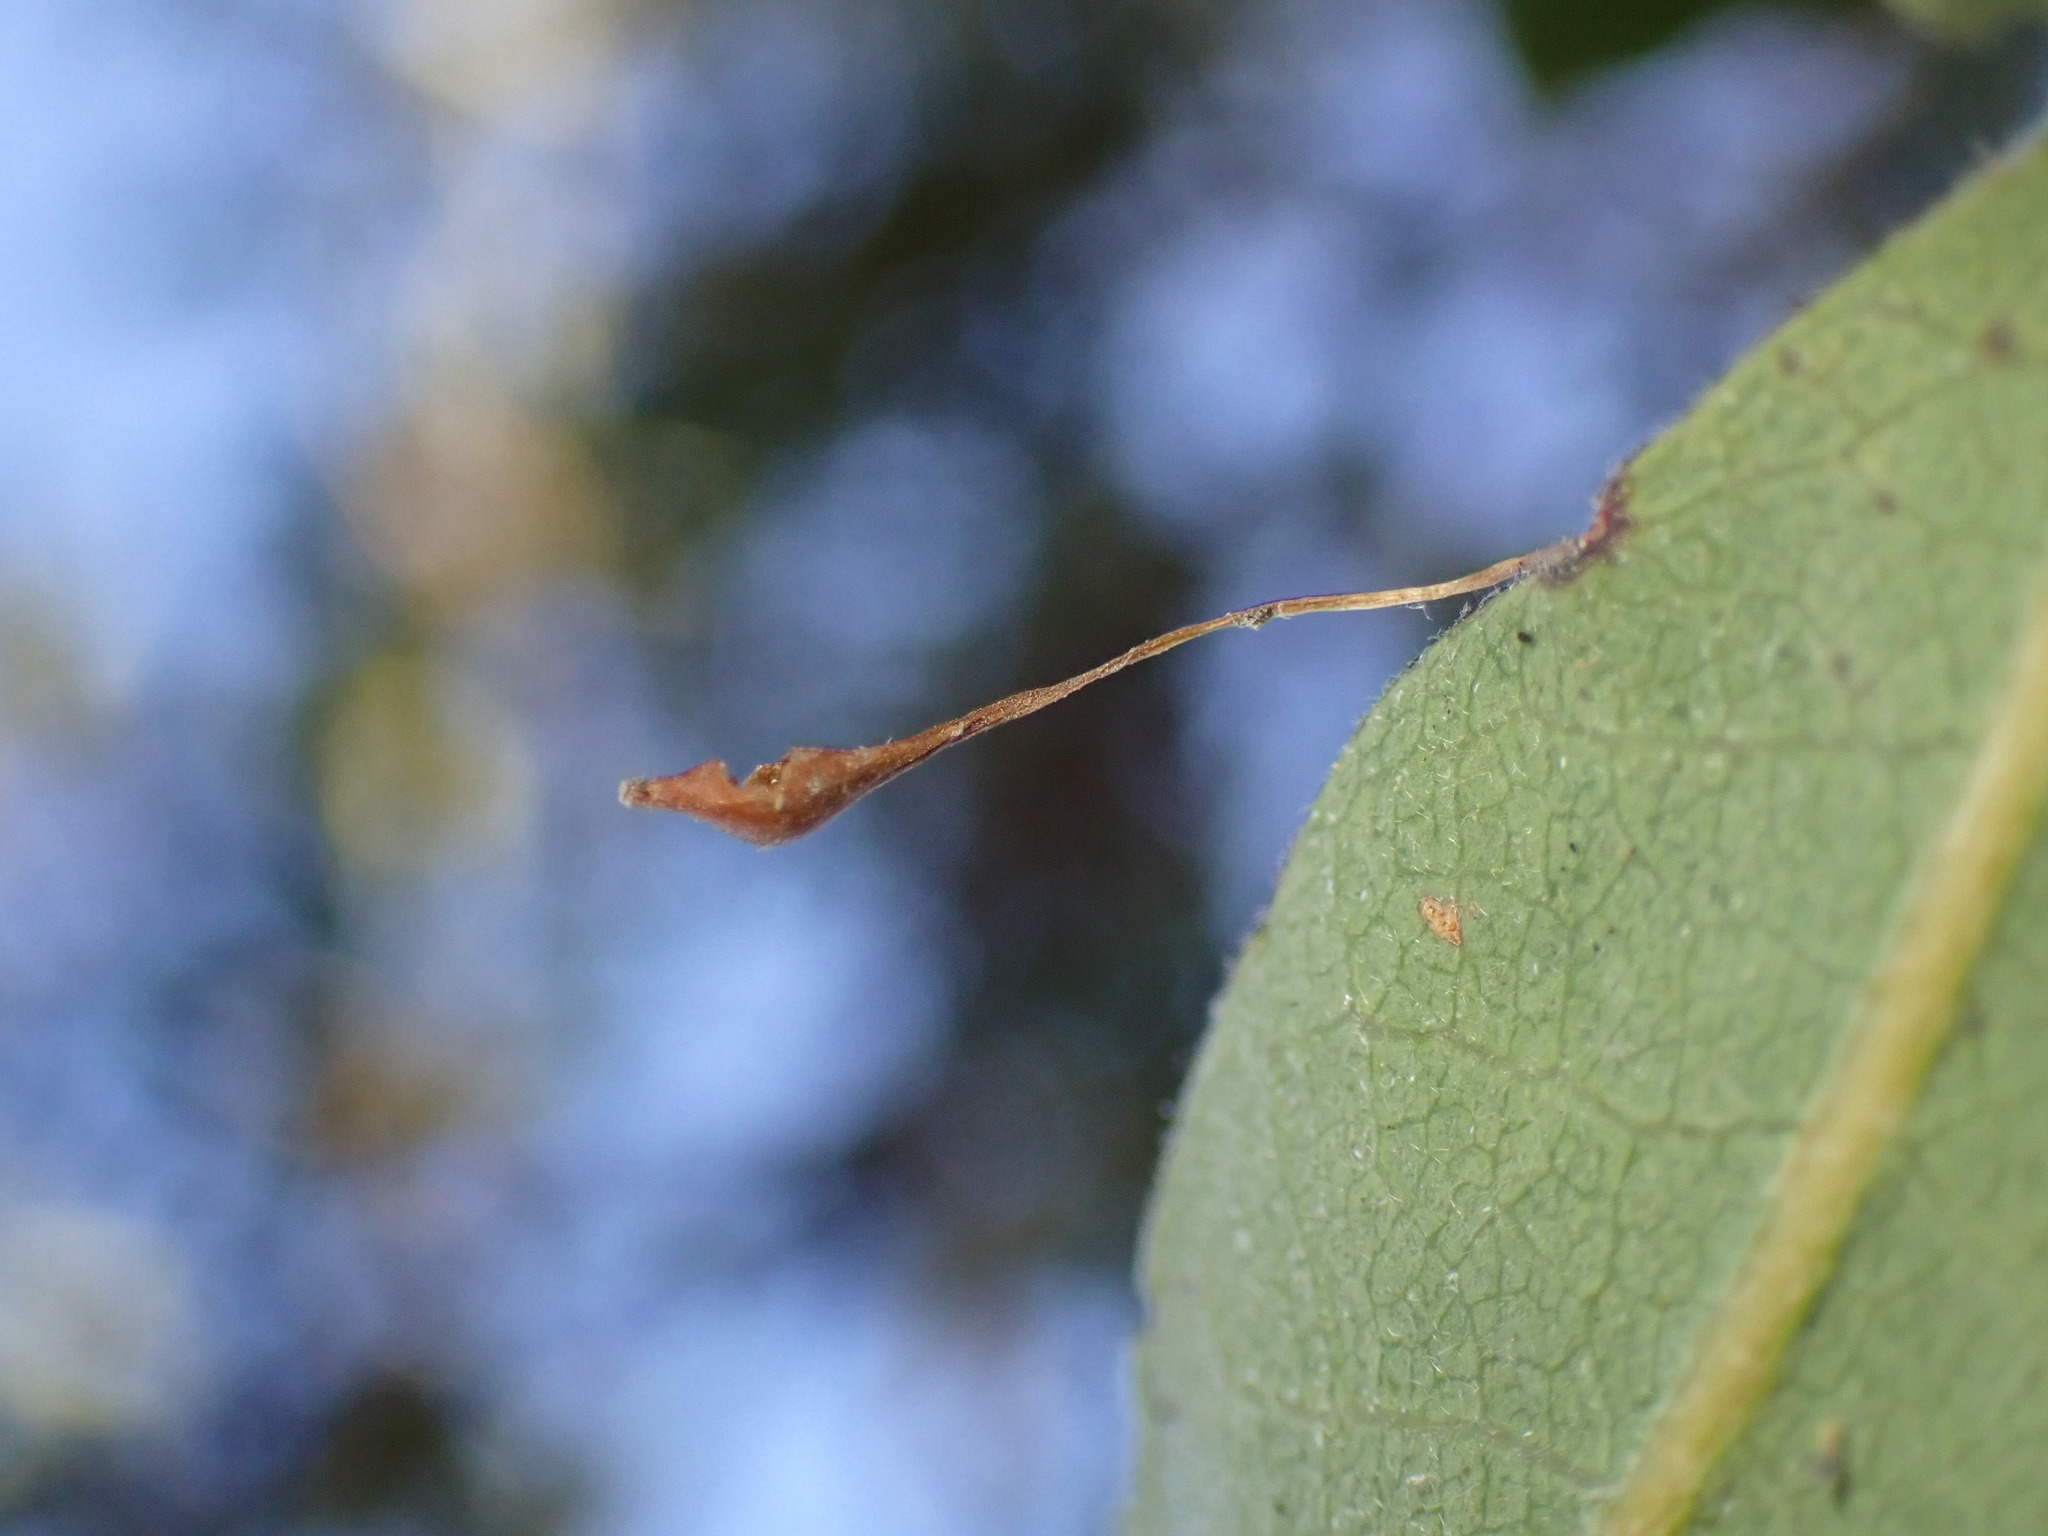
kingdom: Animalia
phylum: Arthropoda
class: Insecta
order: Hymenoptera
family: Cynipidae
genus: Andricus
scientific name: Andricus
